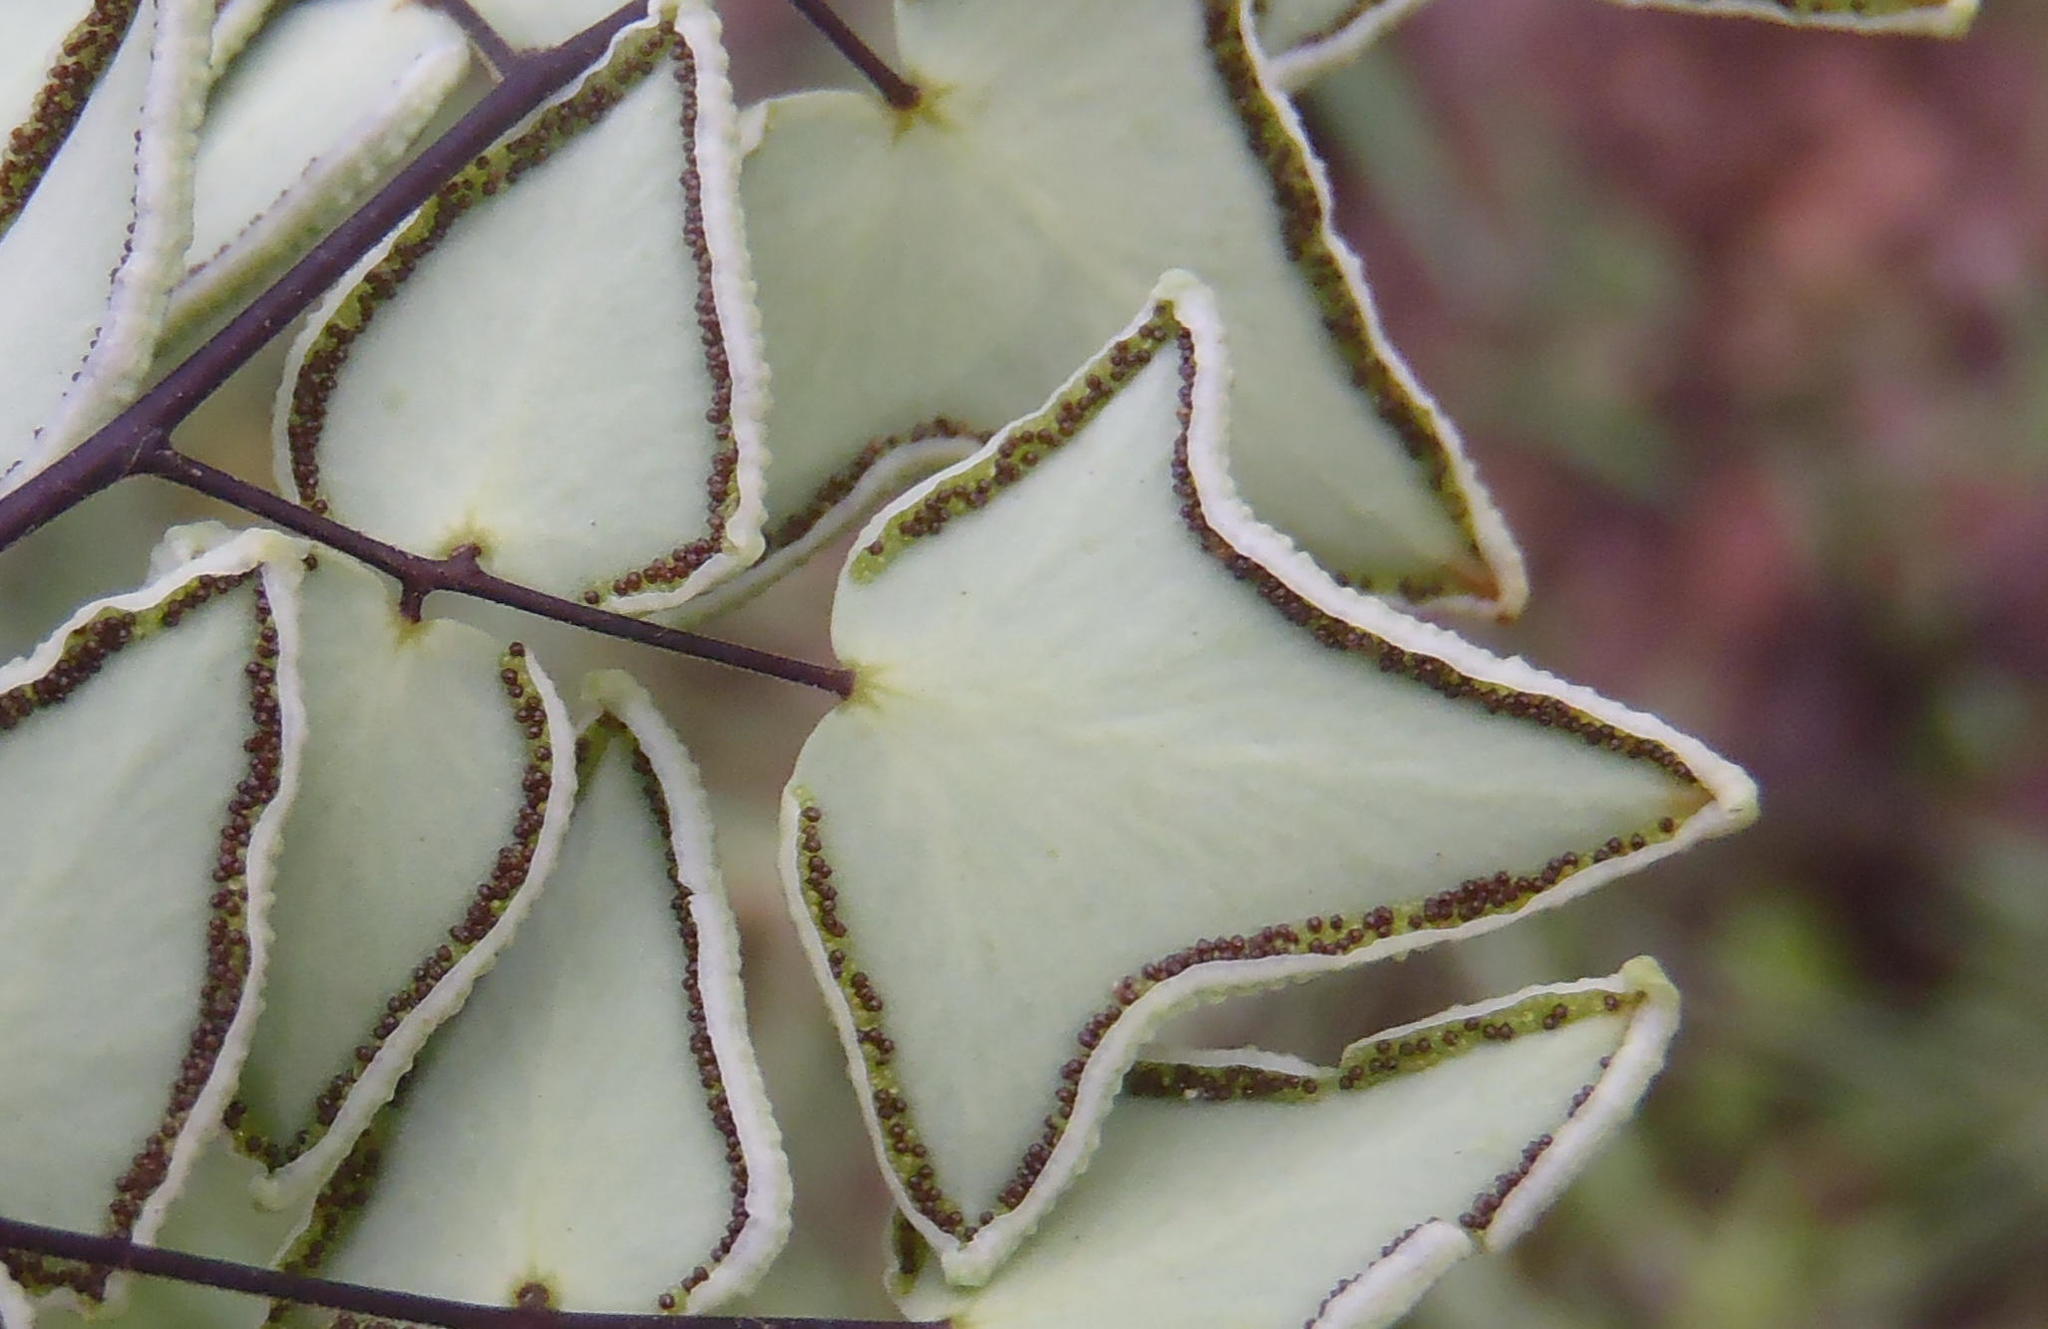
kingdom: Plantae
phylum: Tracheophyta
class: Polypodiopsida
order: Polypodiales
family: Pteridaceae
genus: Pellaea
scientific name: Pellaea calomelanos
